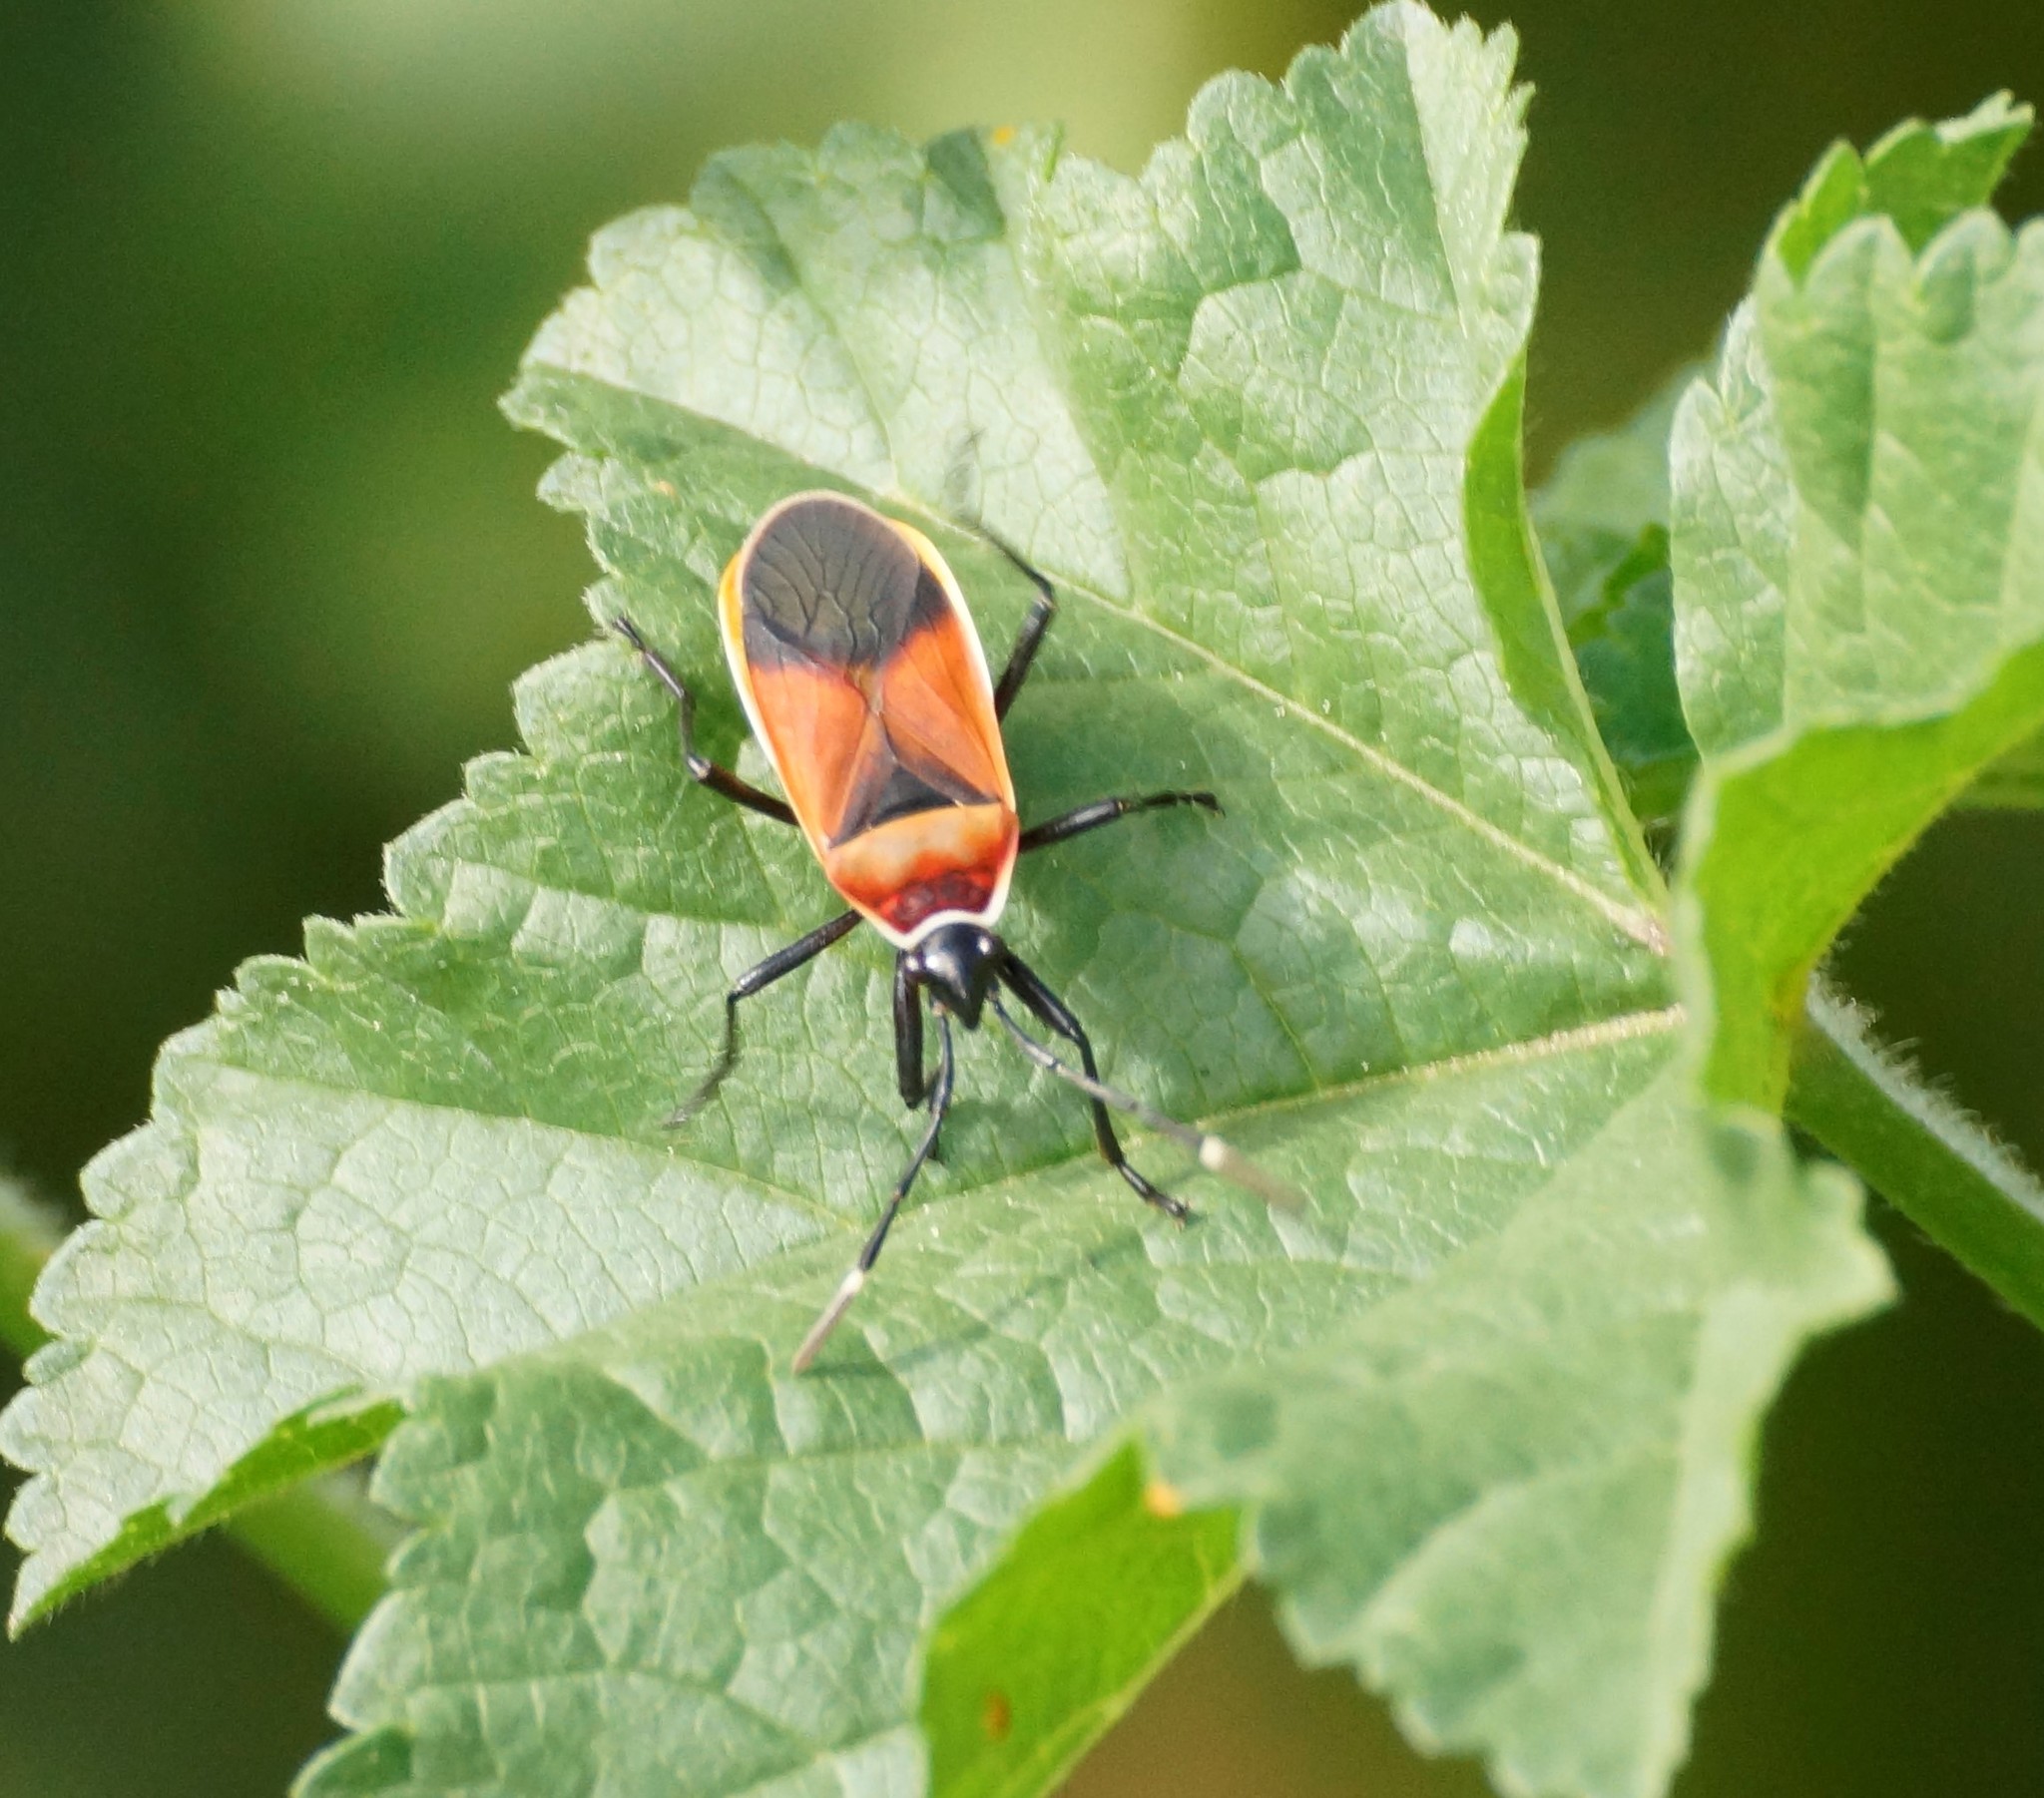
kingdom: Animalia
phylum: Arthropoda
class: Insecta
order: Hemiptera
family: Pyrrhocoridae
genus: Dindymus
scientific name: Dindymus
